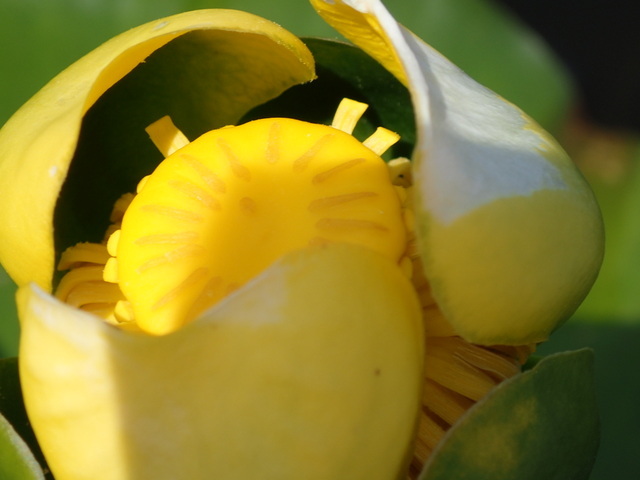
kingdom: Plantae
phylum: Tracheophyta
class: Magnoliopsida
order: Nymphaeales
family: Nymphaeaceae
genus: Nuphar
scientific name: Nuphar advena
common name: Spatter-dock
